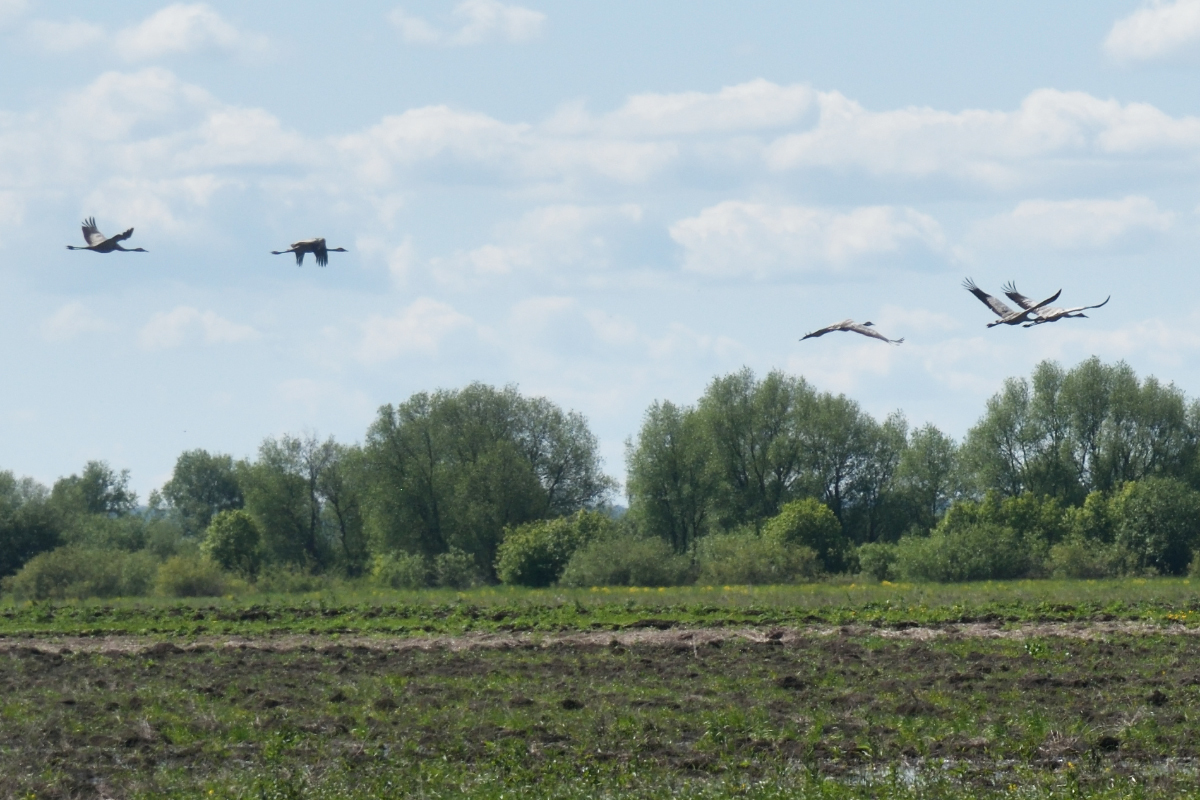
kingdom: Animalia
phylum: Chordata
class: Aves
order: Gruiformes
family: Gruidae
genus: Grus
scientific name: Grus grus
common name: Common crane
